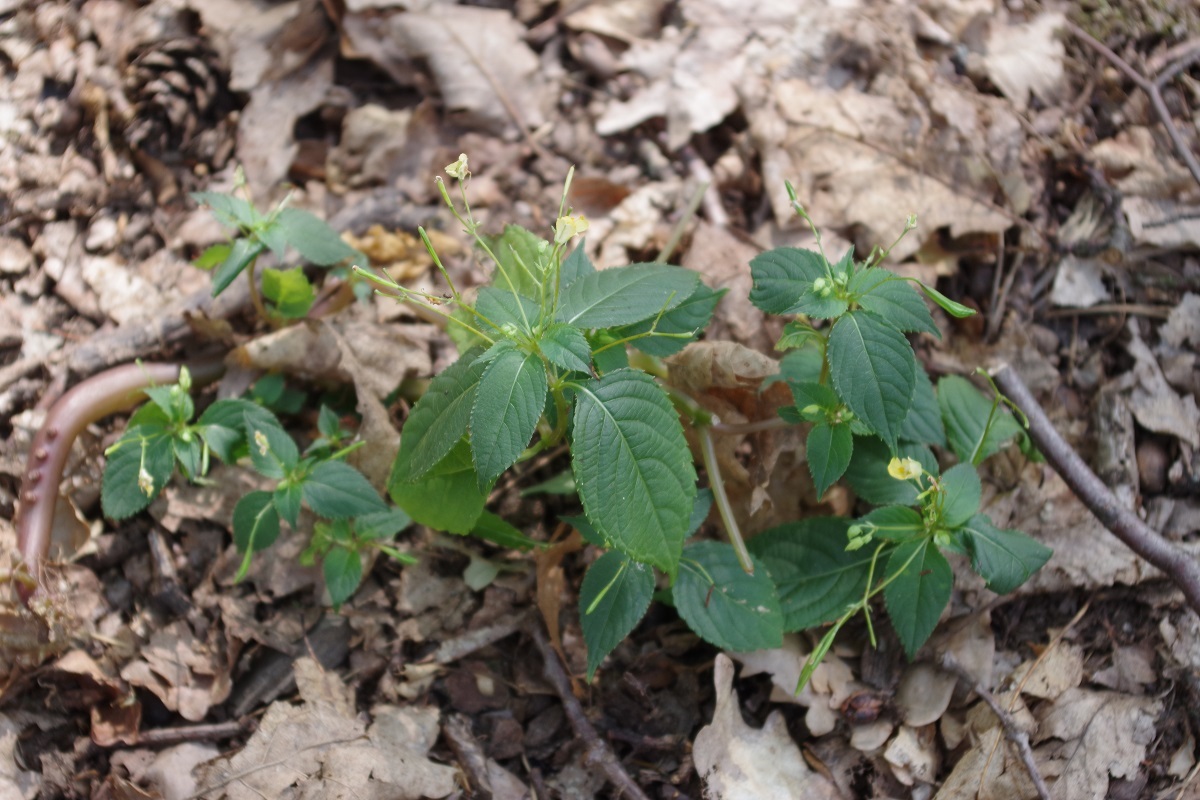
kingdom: Plantae
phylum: Tracheophyta
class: Magnoliopsida
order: Ericales
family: Balsaminaceae
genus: Impatiens
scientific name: Impatiens parviflora
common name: Small balsam
